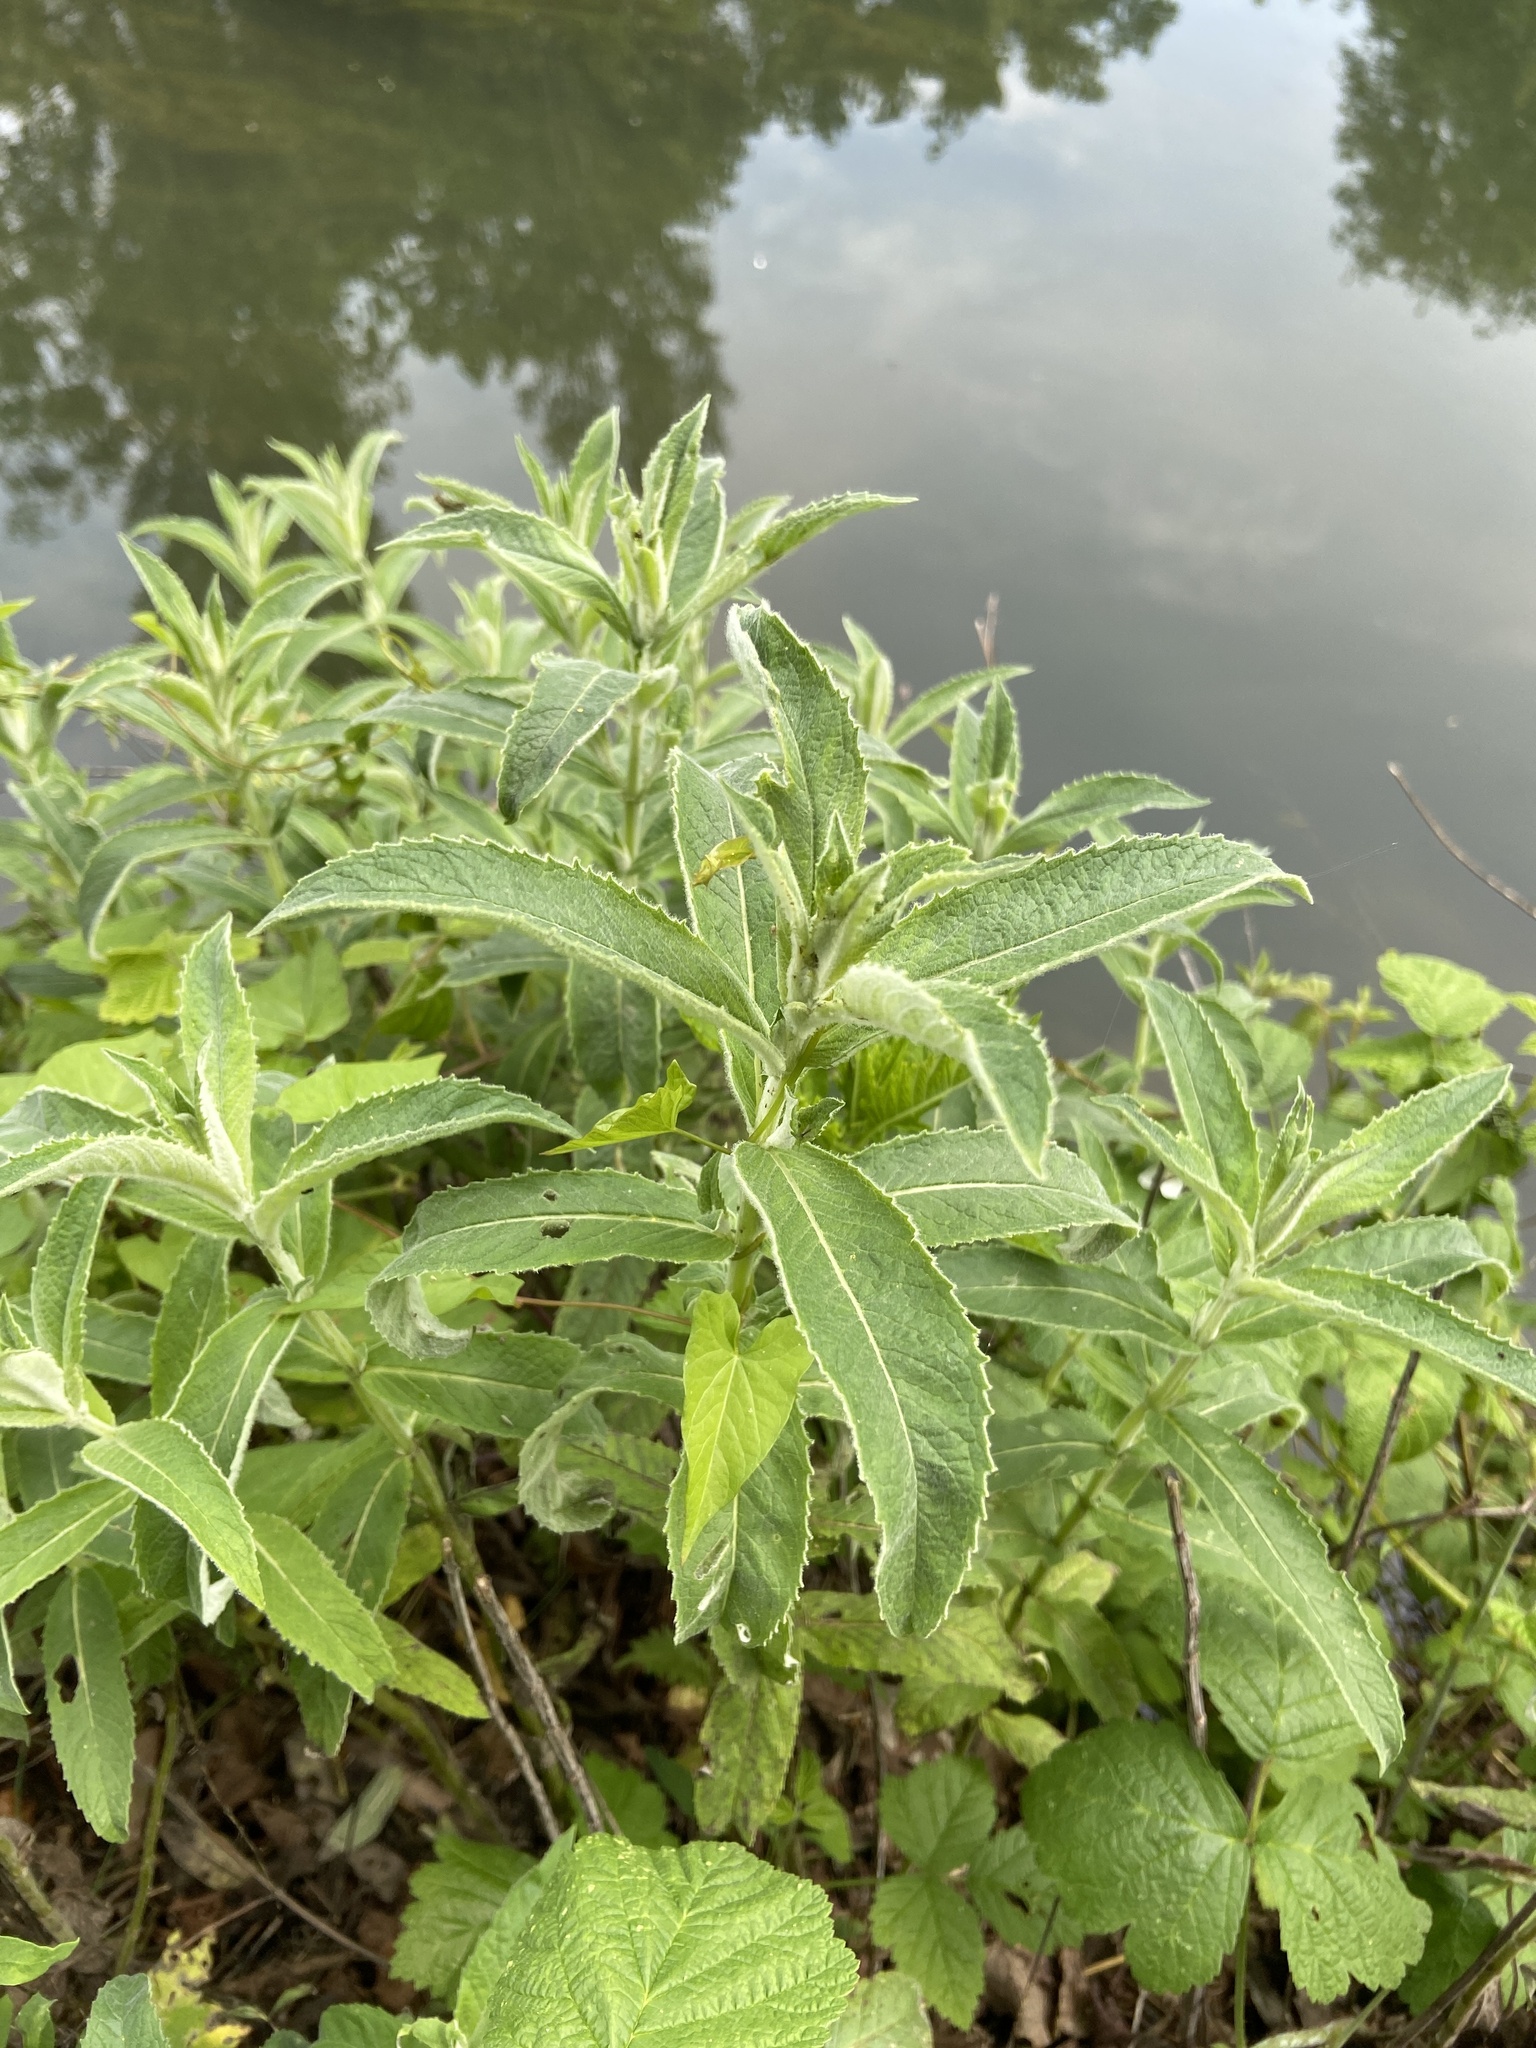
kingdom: Plantae
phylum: Tracheophyta
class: Magnoliopsida
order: Lamiales
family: Lamiaceae
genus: Mentha
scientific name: Mentha longifolia
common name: Horse mint
